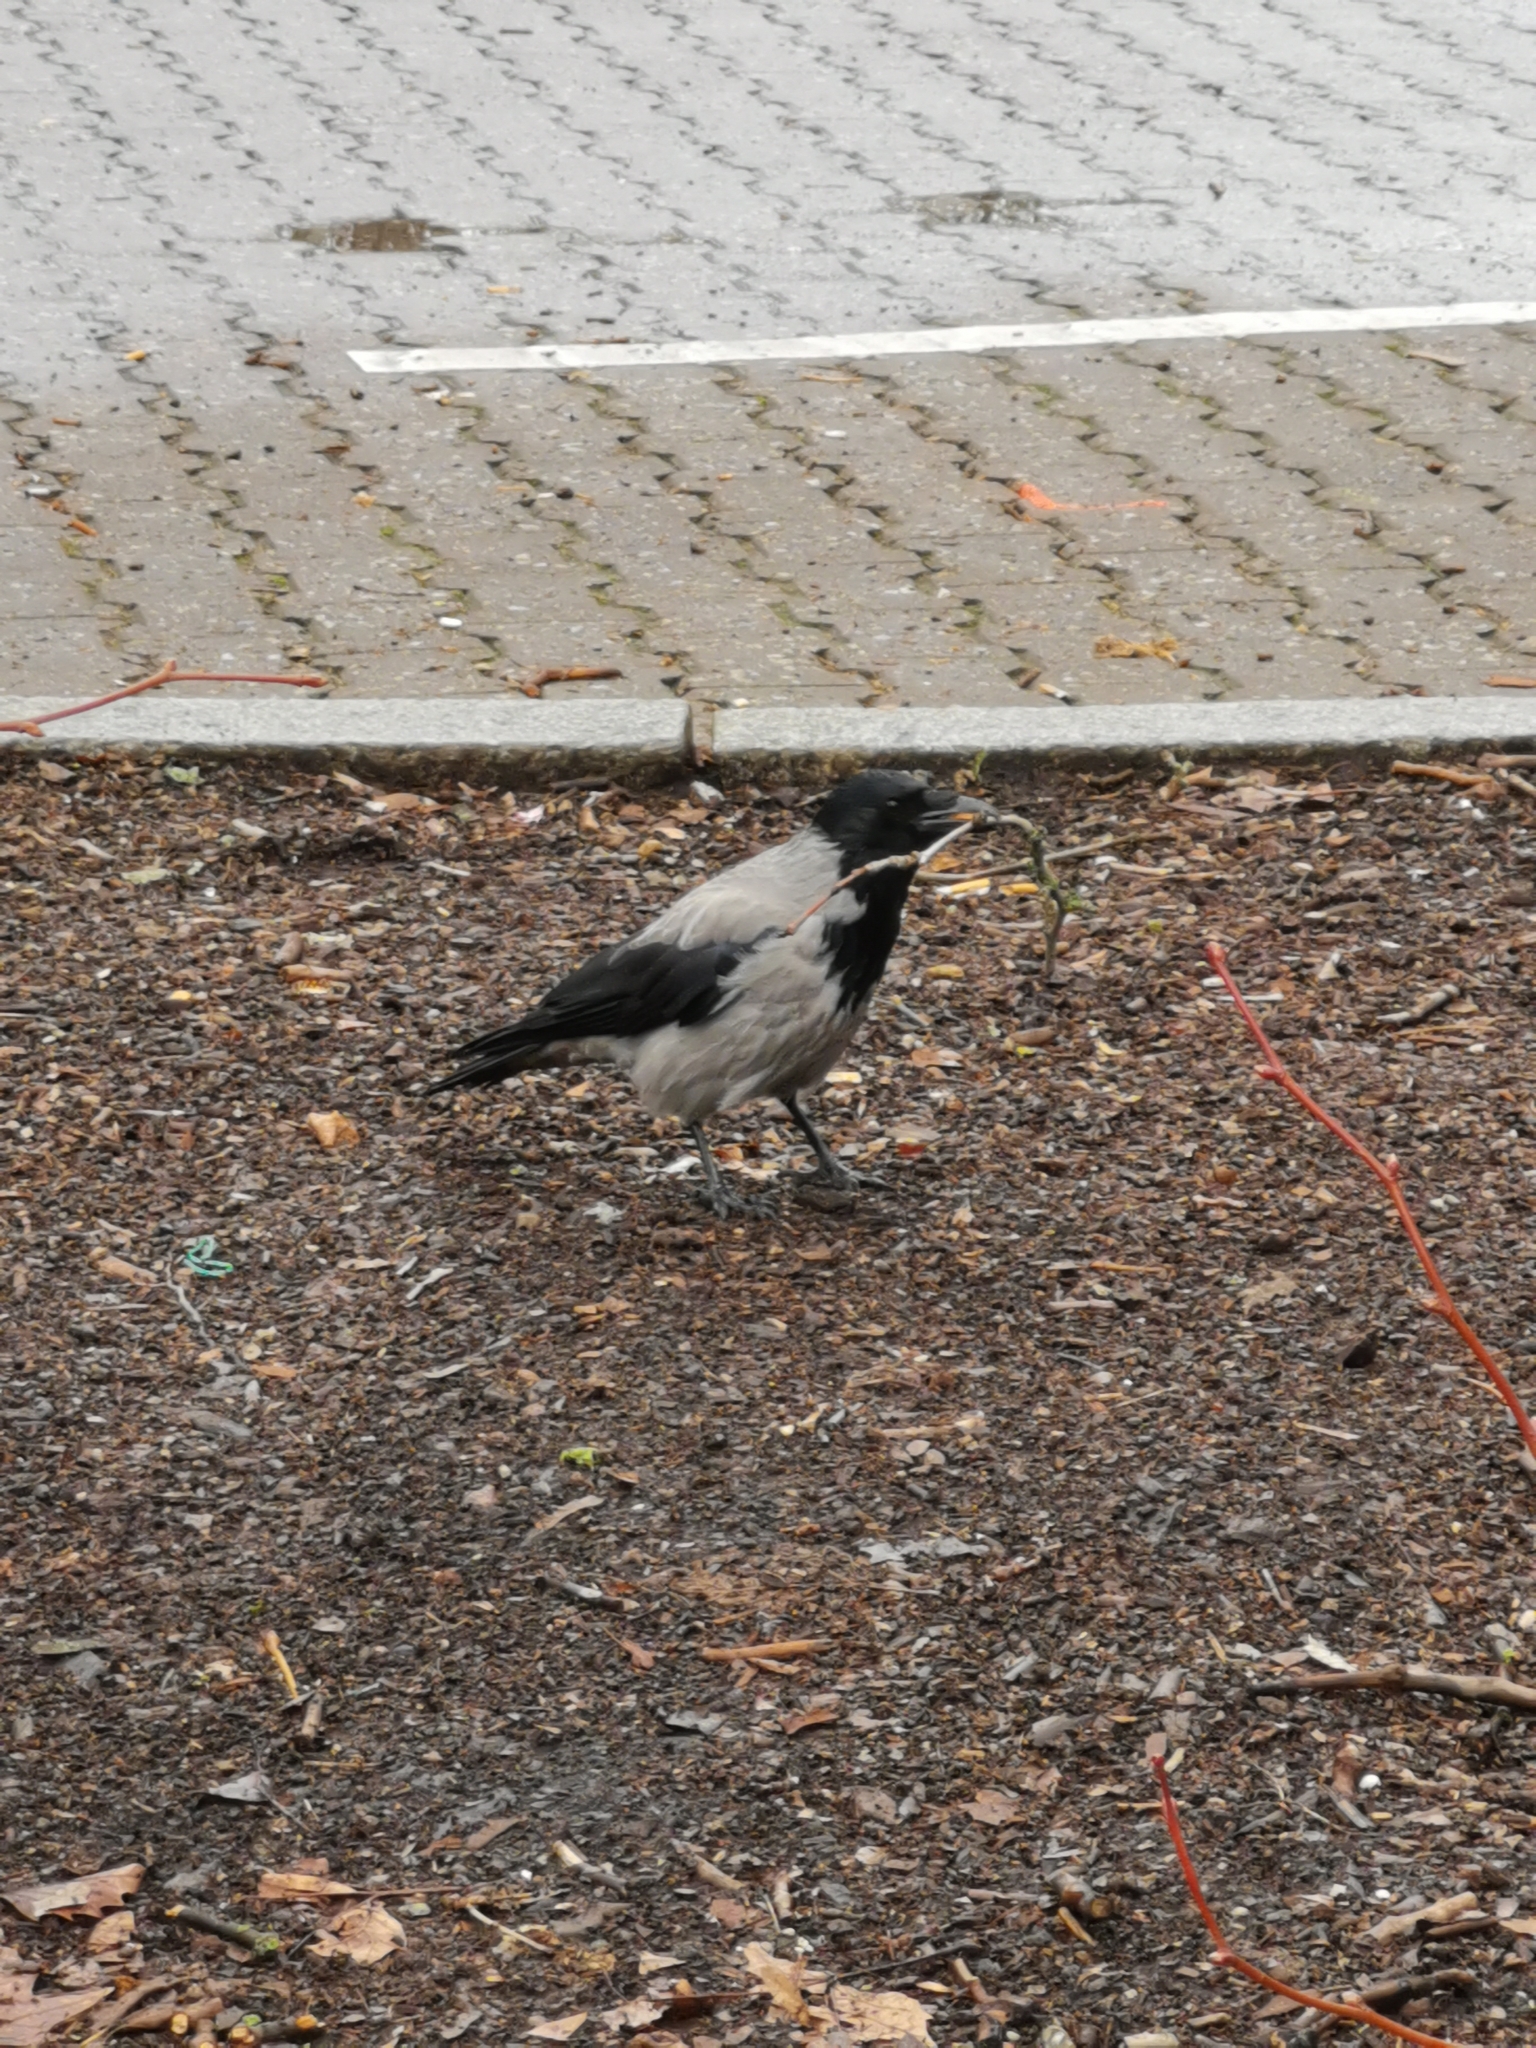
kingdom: Animalia
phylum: Chordata
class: Aves
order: Passeriformes
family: Corvidae
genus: Corvus
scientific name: Corvus cornix
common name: Hooded crow
